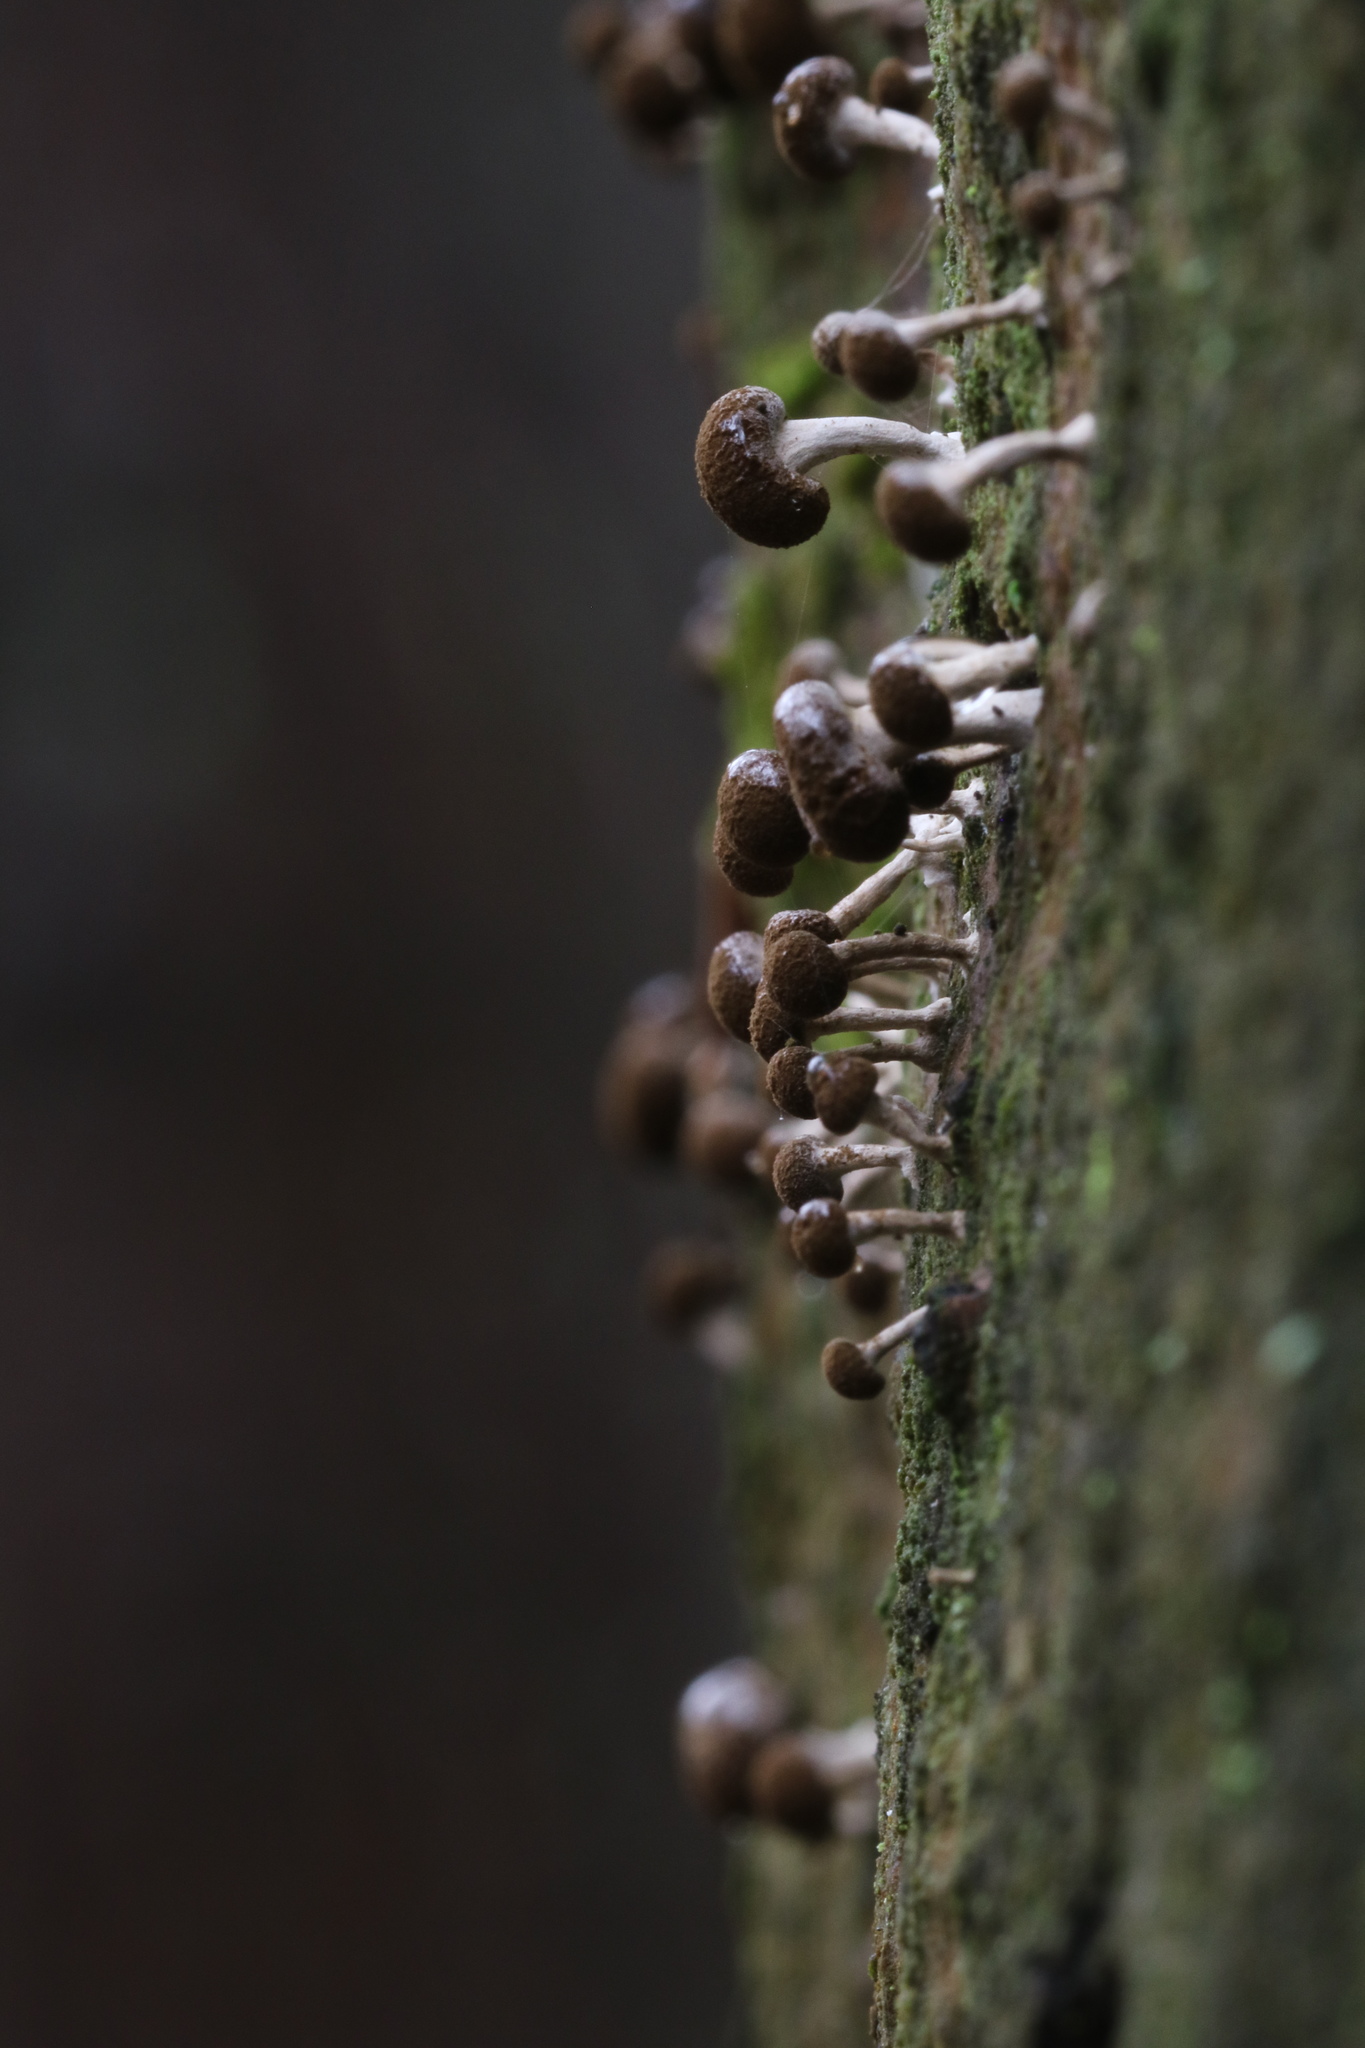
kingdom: Fungi
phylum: Basidiomycota
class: Atractiellomycetes
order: Atractiellales
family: Phleogenaceae
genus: Phleogena
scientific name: Phleogena faginea
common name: Fenugreek stalkball
